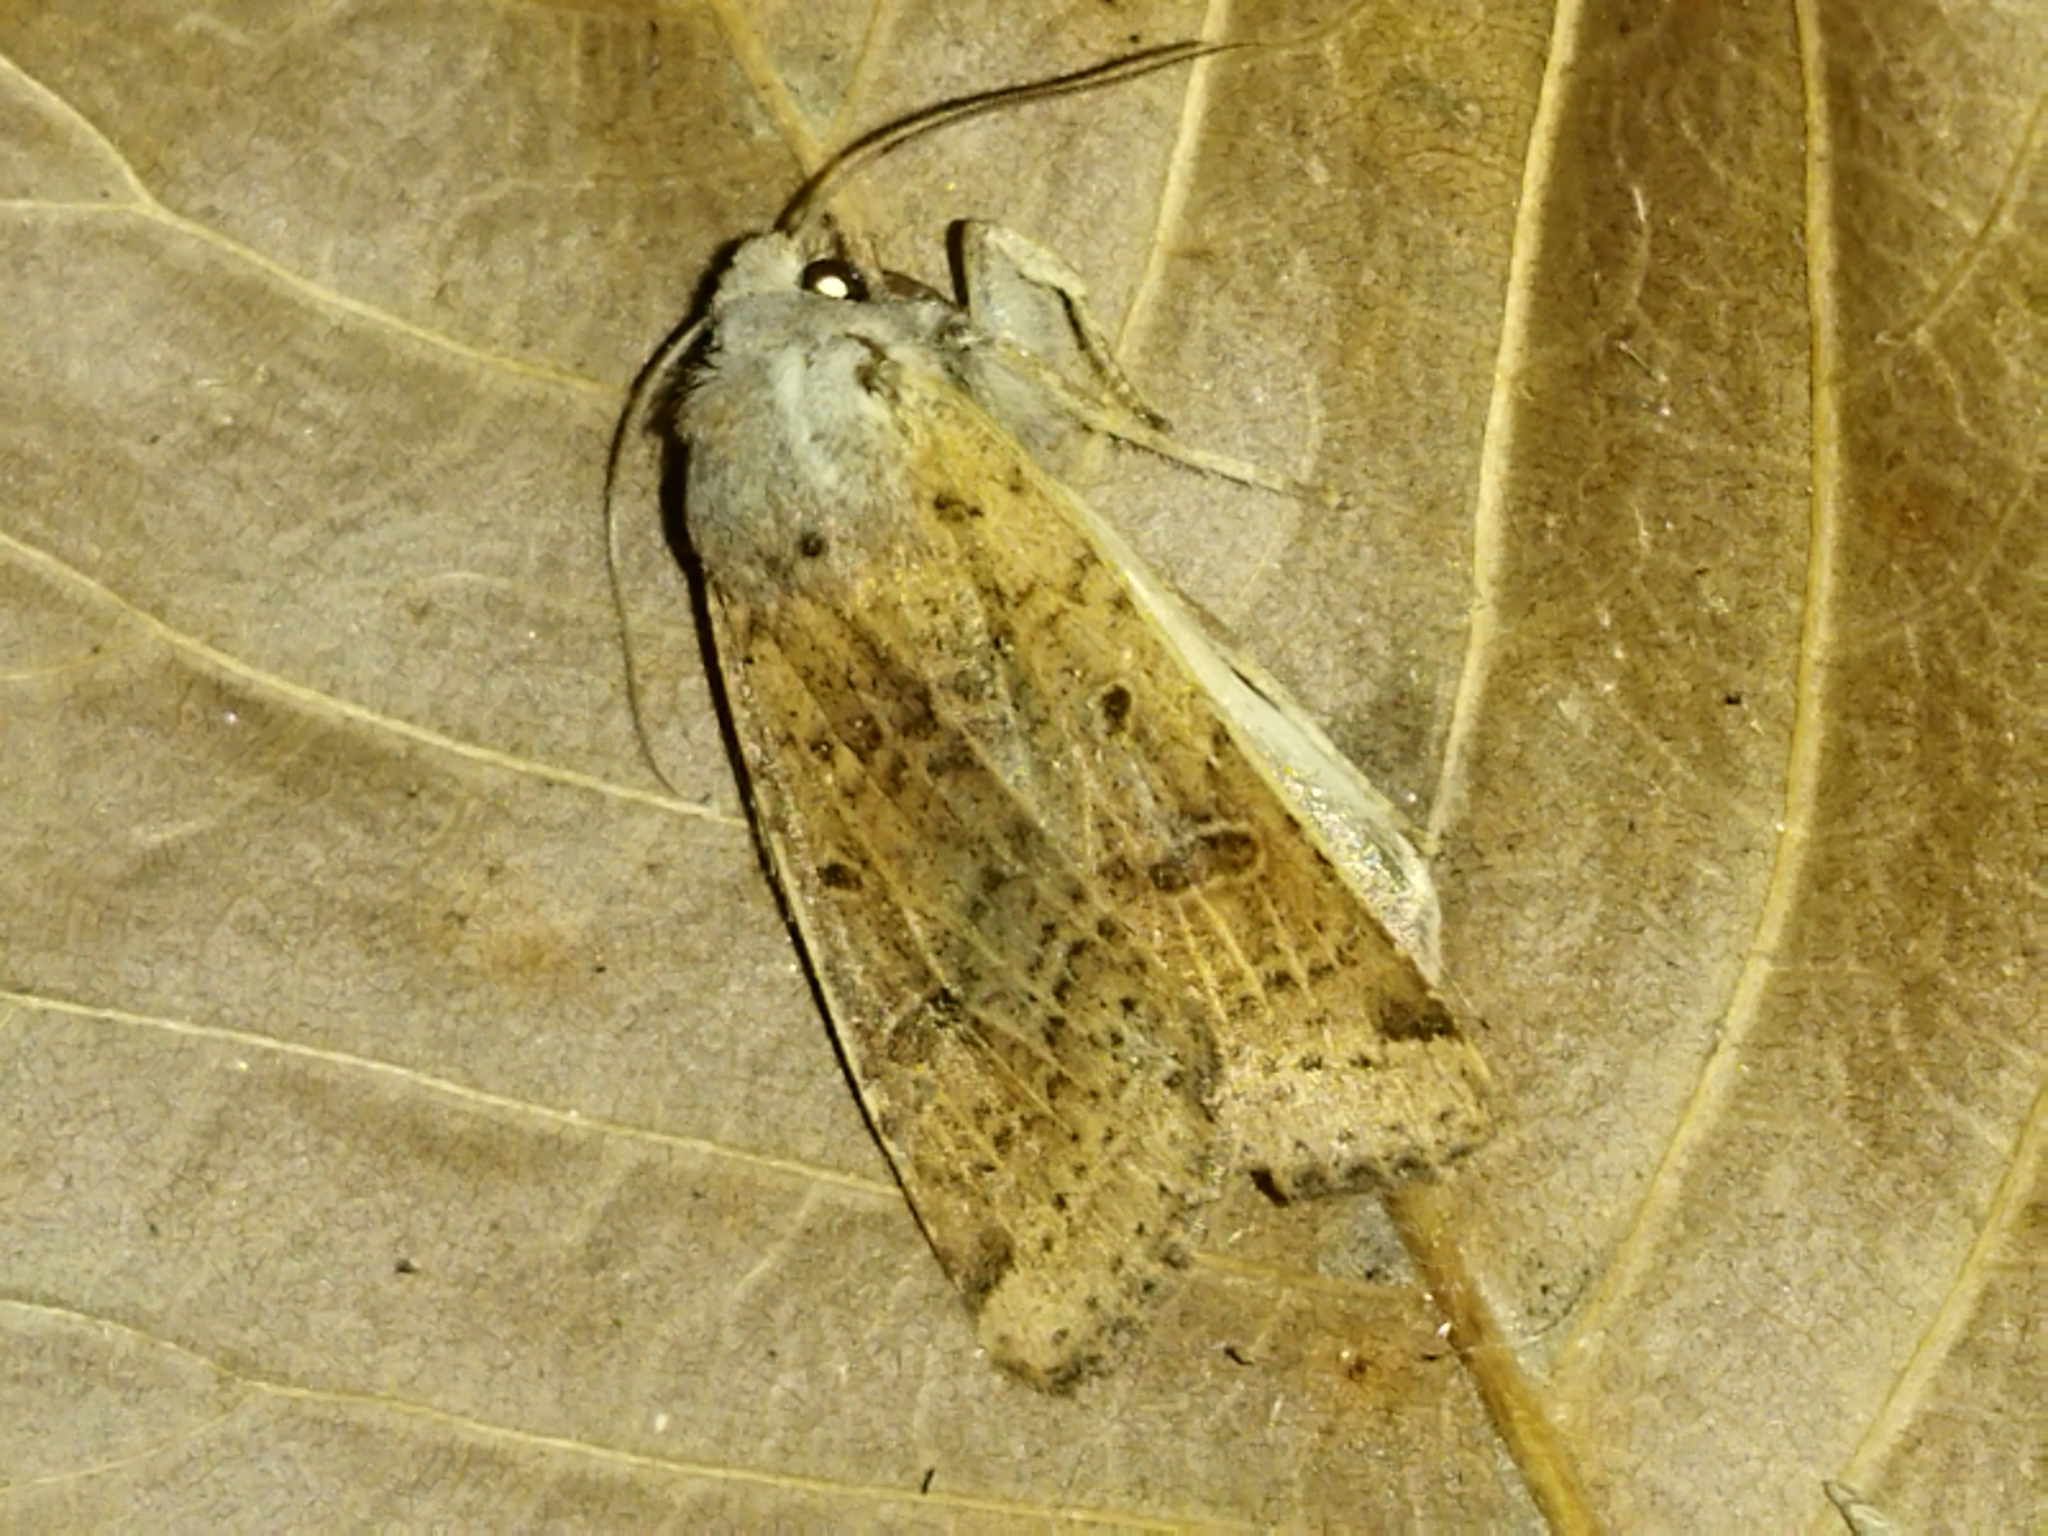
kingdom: Animalia
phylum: Arthropoda
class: Insecta
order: Lepidoptera
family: Noctuidae
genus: Agrochola
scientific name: Agrochola lychnidis
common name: Beaded chestnut
